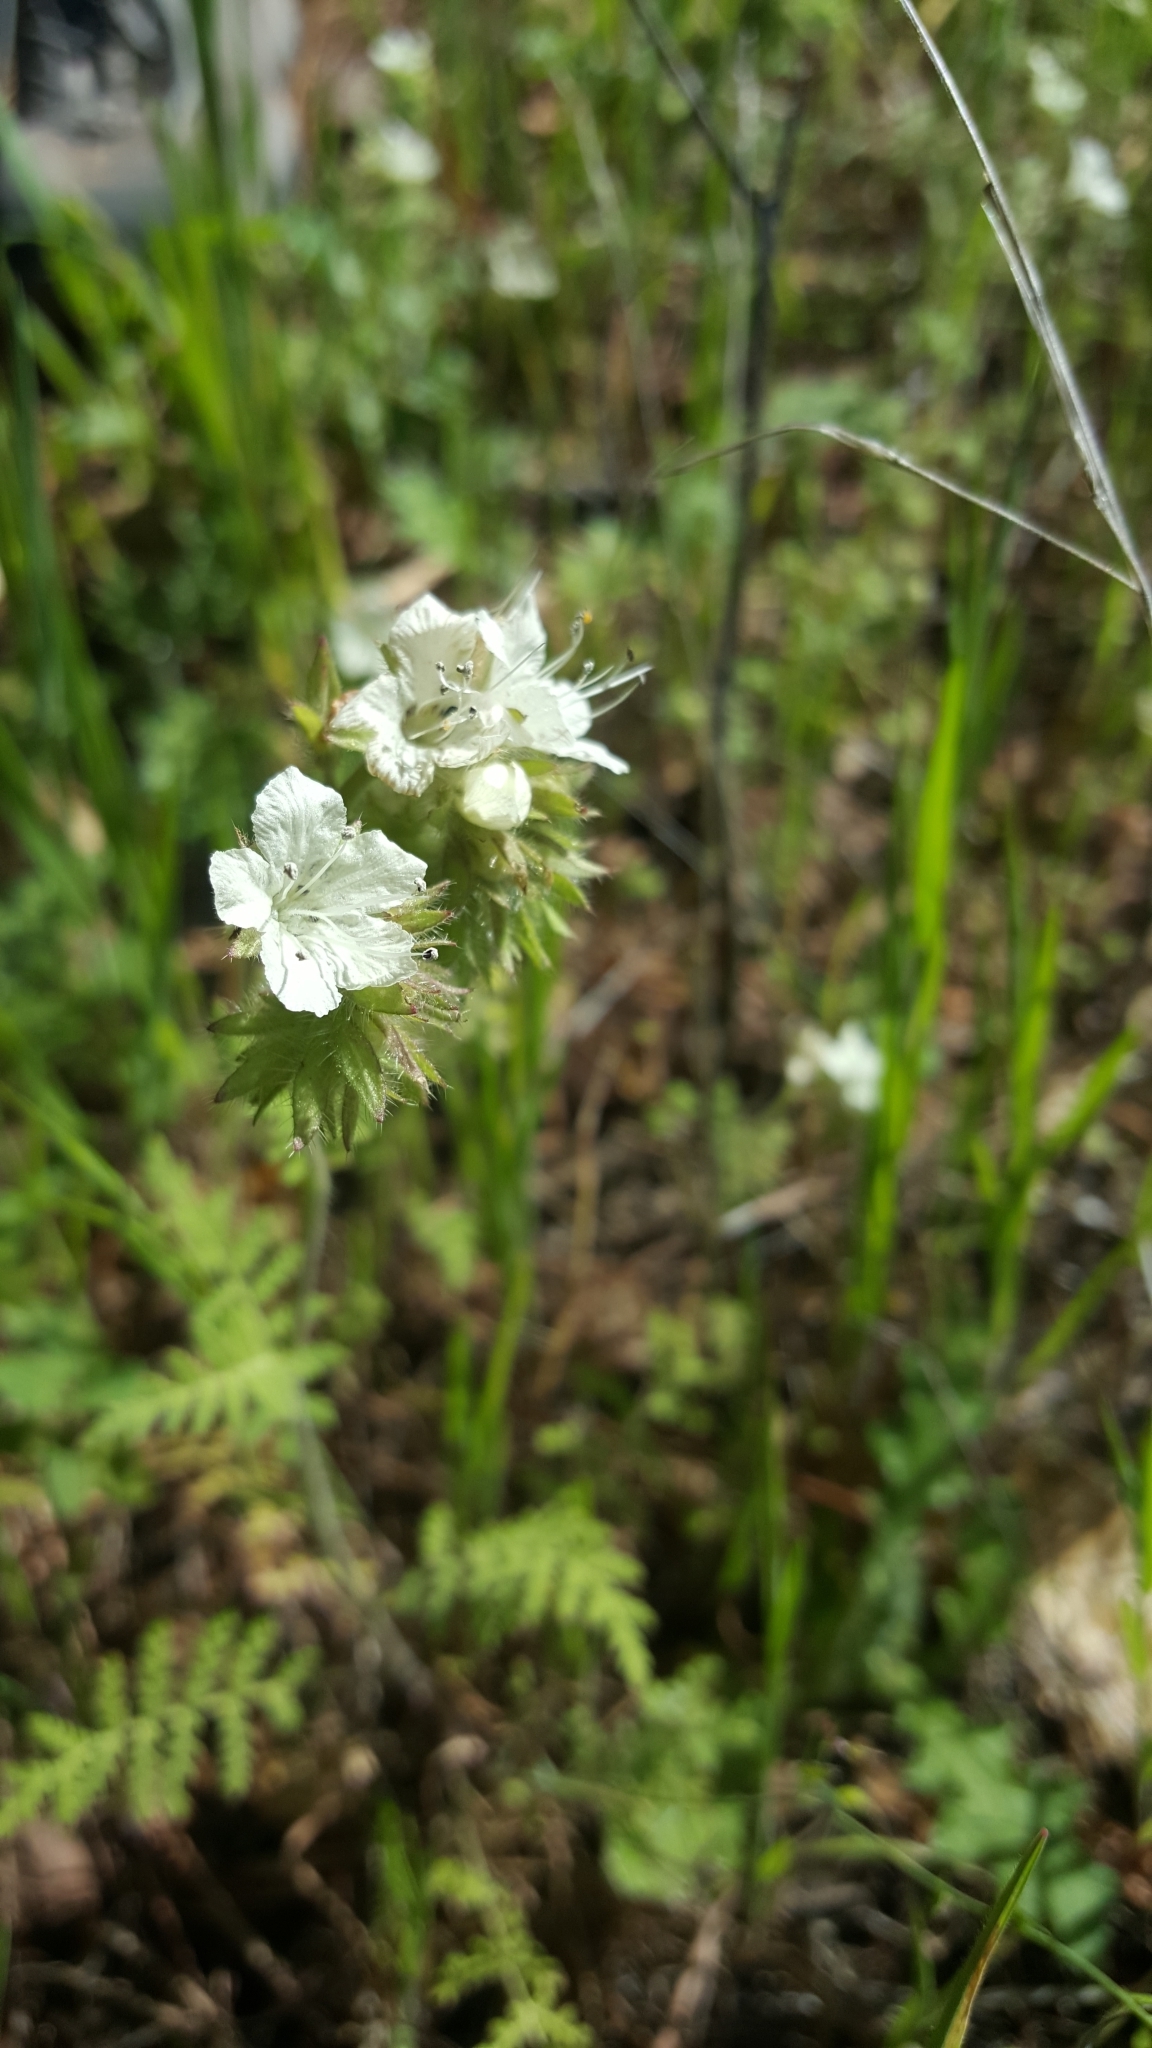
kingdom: Plantae
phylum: Tracheophyta
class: Magnoliopsida
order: Boraginales
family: Hydrophyllaceae
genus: Phacelia
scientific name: Phacelia distans
